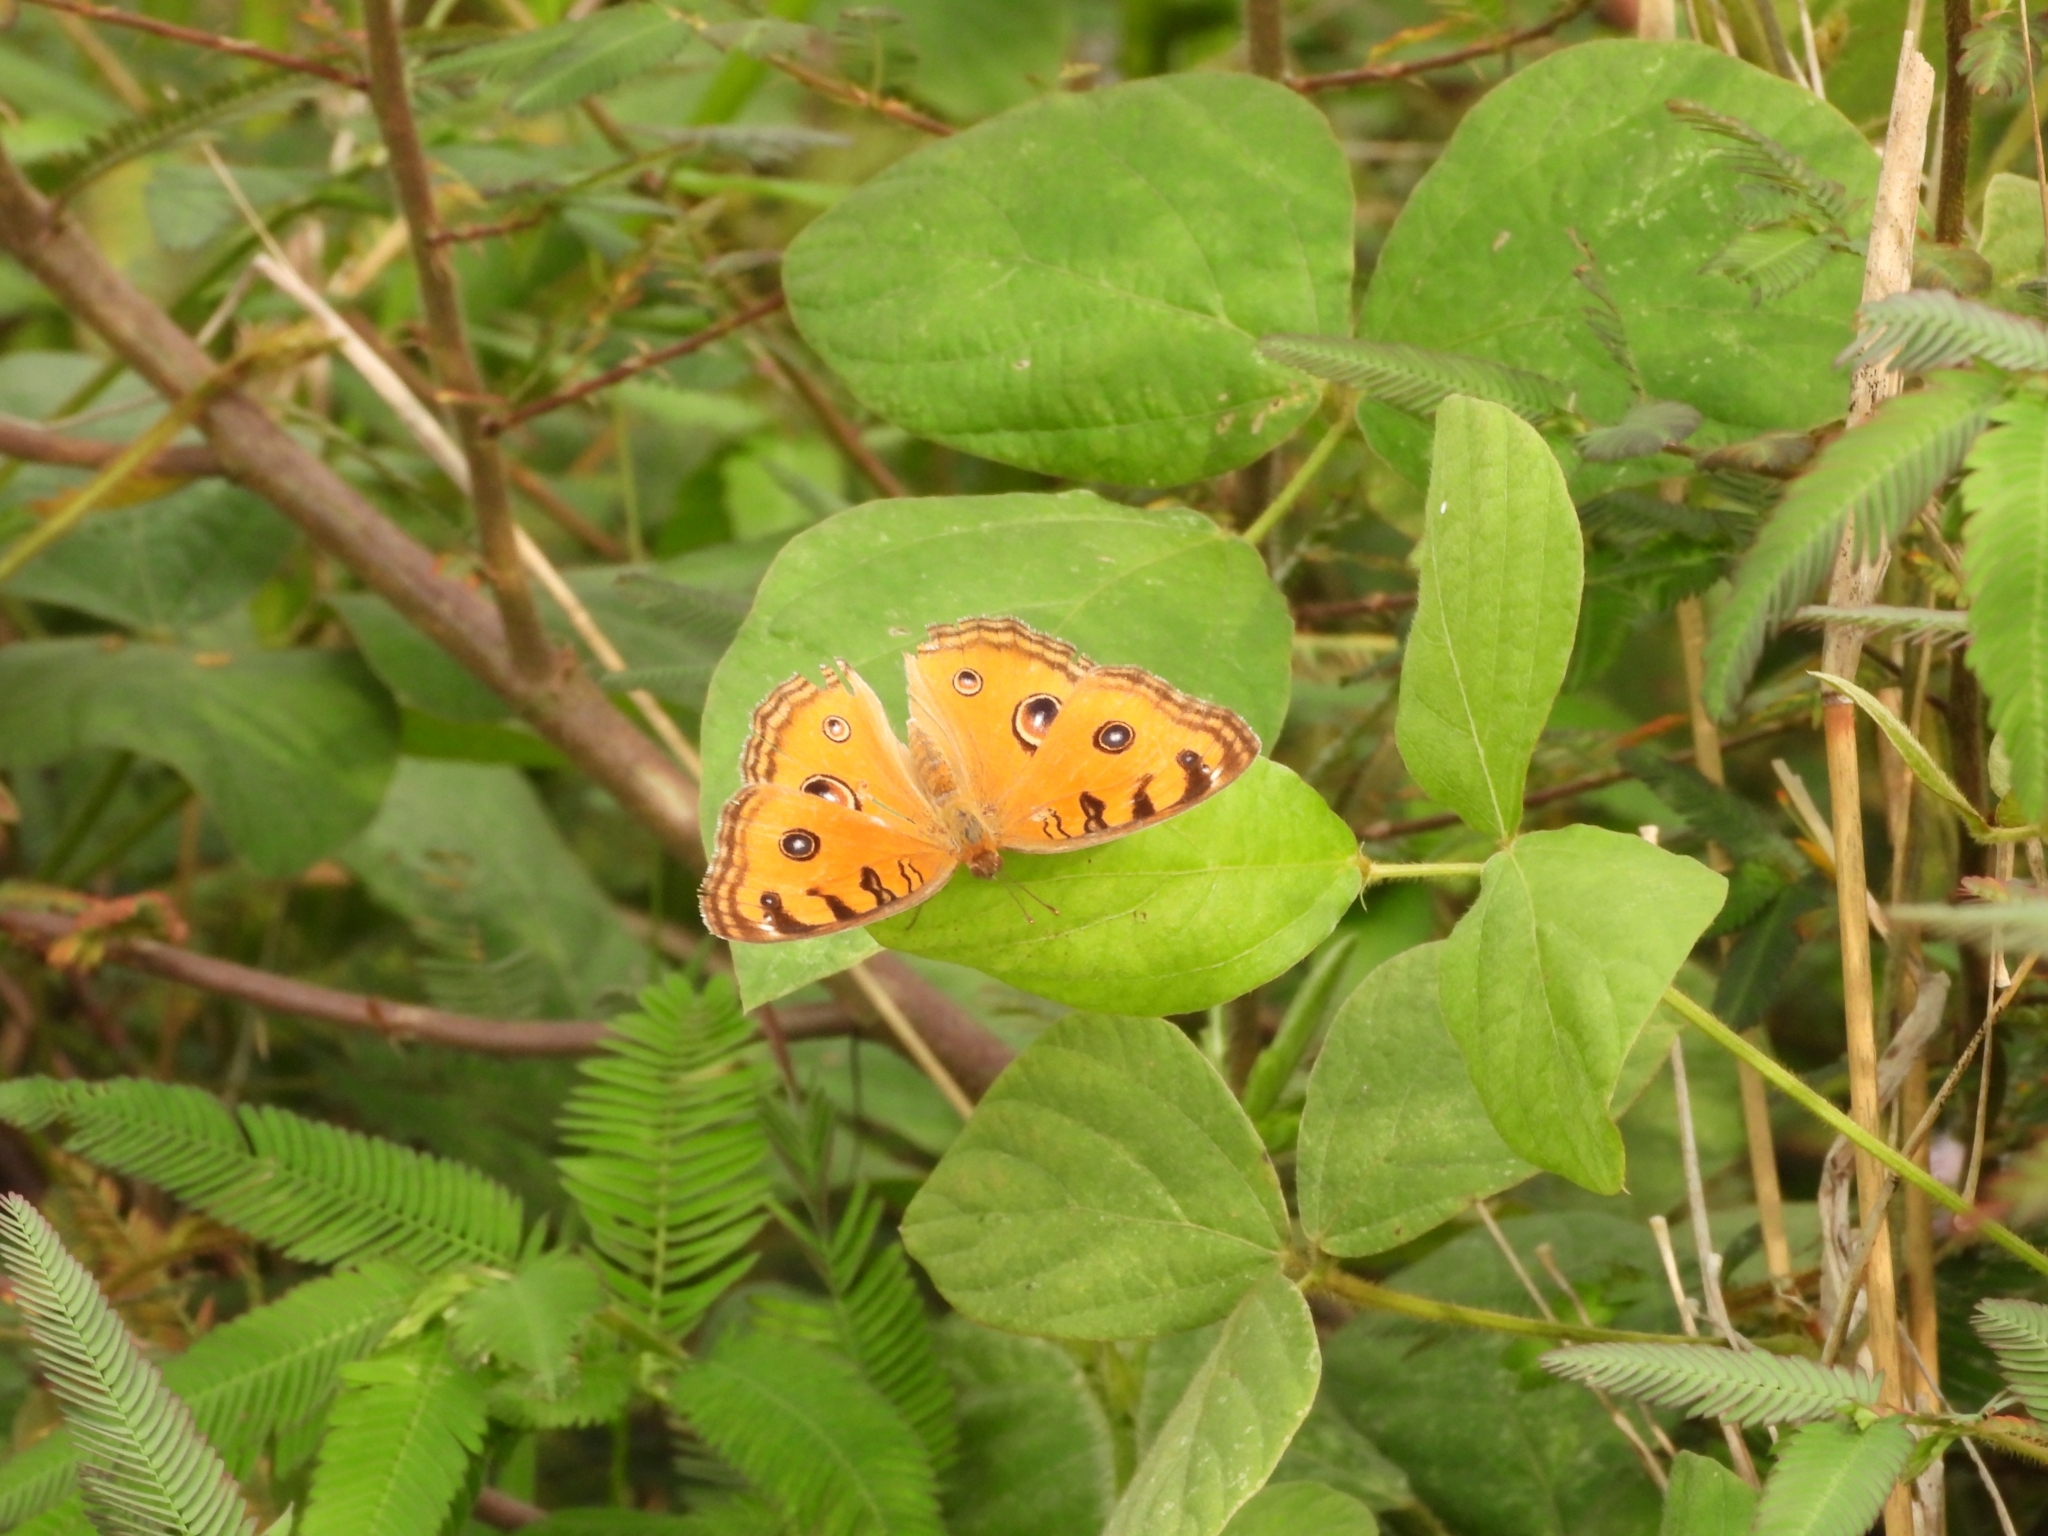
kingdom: Animalia
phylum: Arthropoda
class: Insecta
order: Lepidoptera
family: Nymphalidae
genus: Junonia
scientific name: Junonia almana
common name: Peacock pansy
